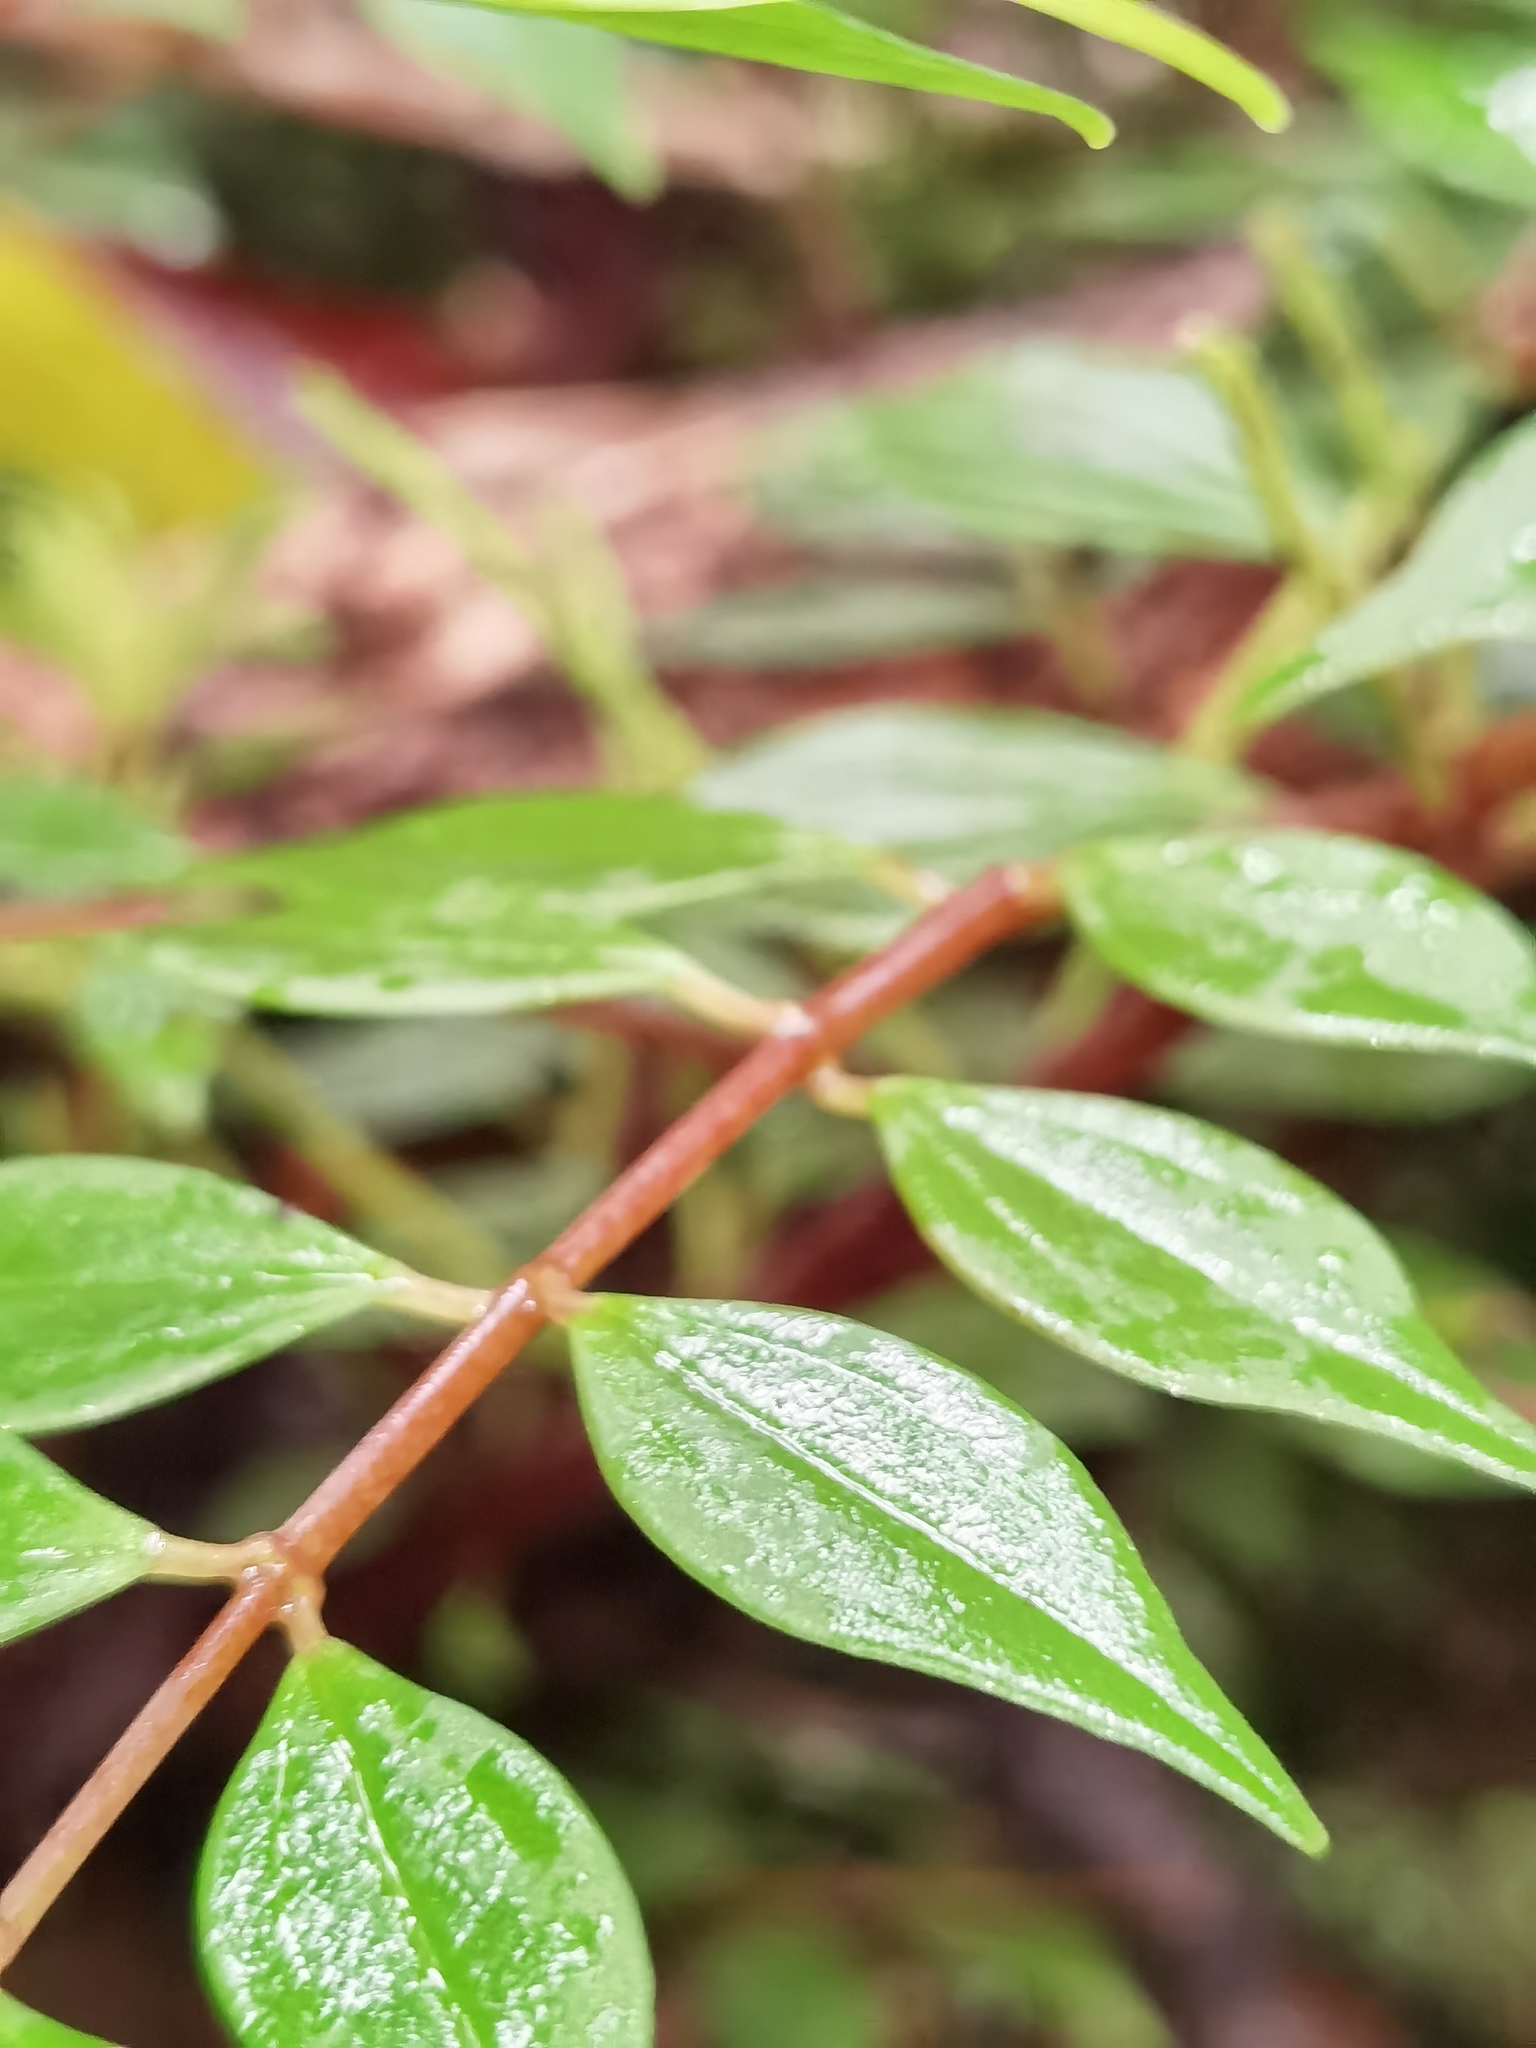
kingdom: Plantae
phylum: Tracheophyta
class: Magnoliopsida
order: Piperales
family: Piperaceae
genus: Peperomia
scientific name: Peperomia palmana
